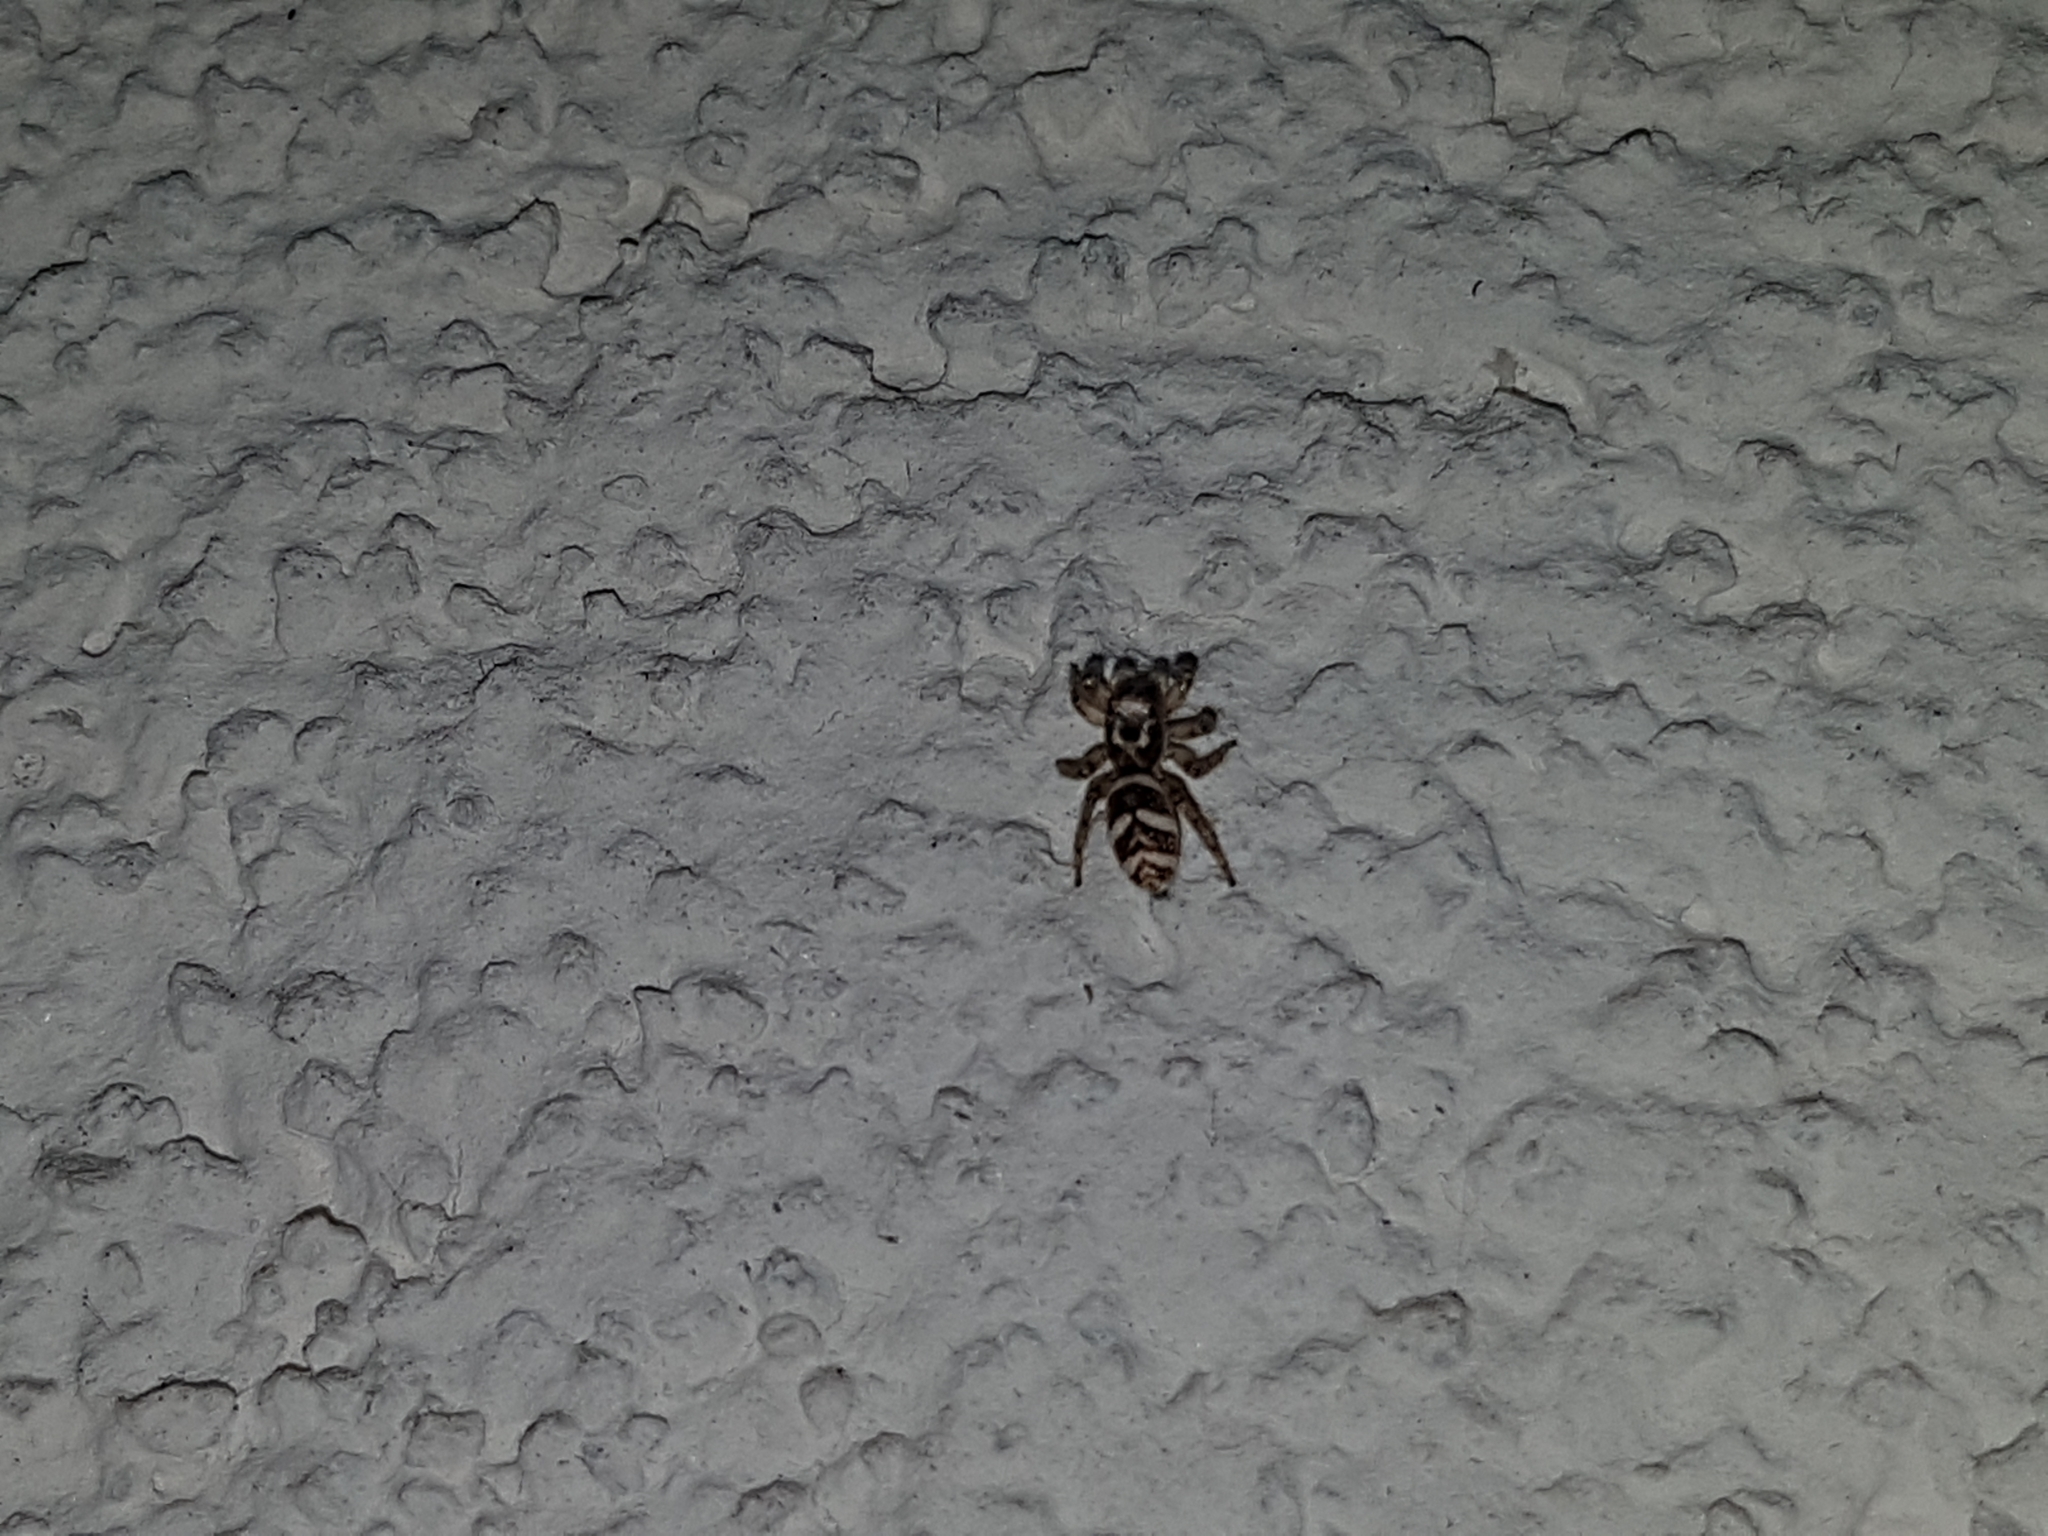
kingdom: Animalia
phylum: Arthropoda
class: Arachnida
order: Araneae
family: Salticidae
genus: Salticus
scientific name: Salticus scenicus
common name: Zebra jumper
